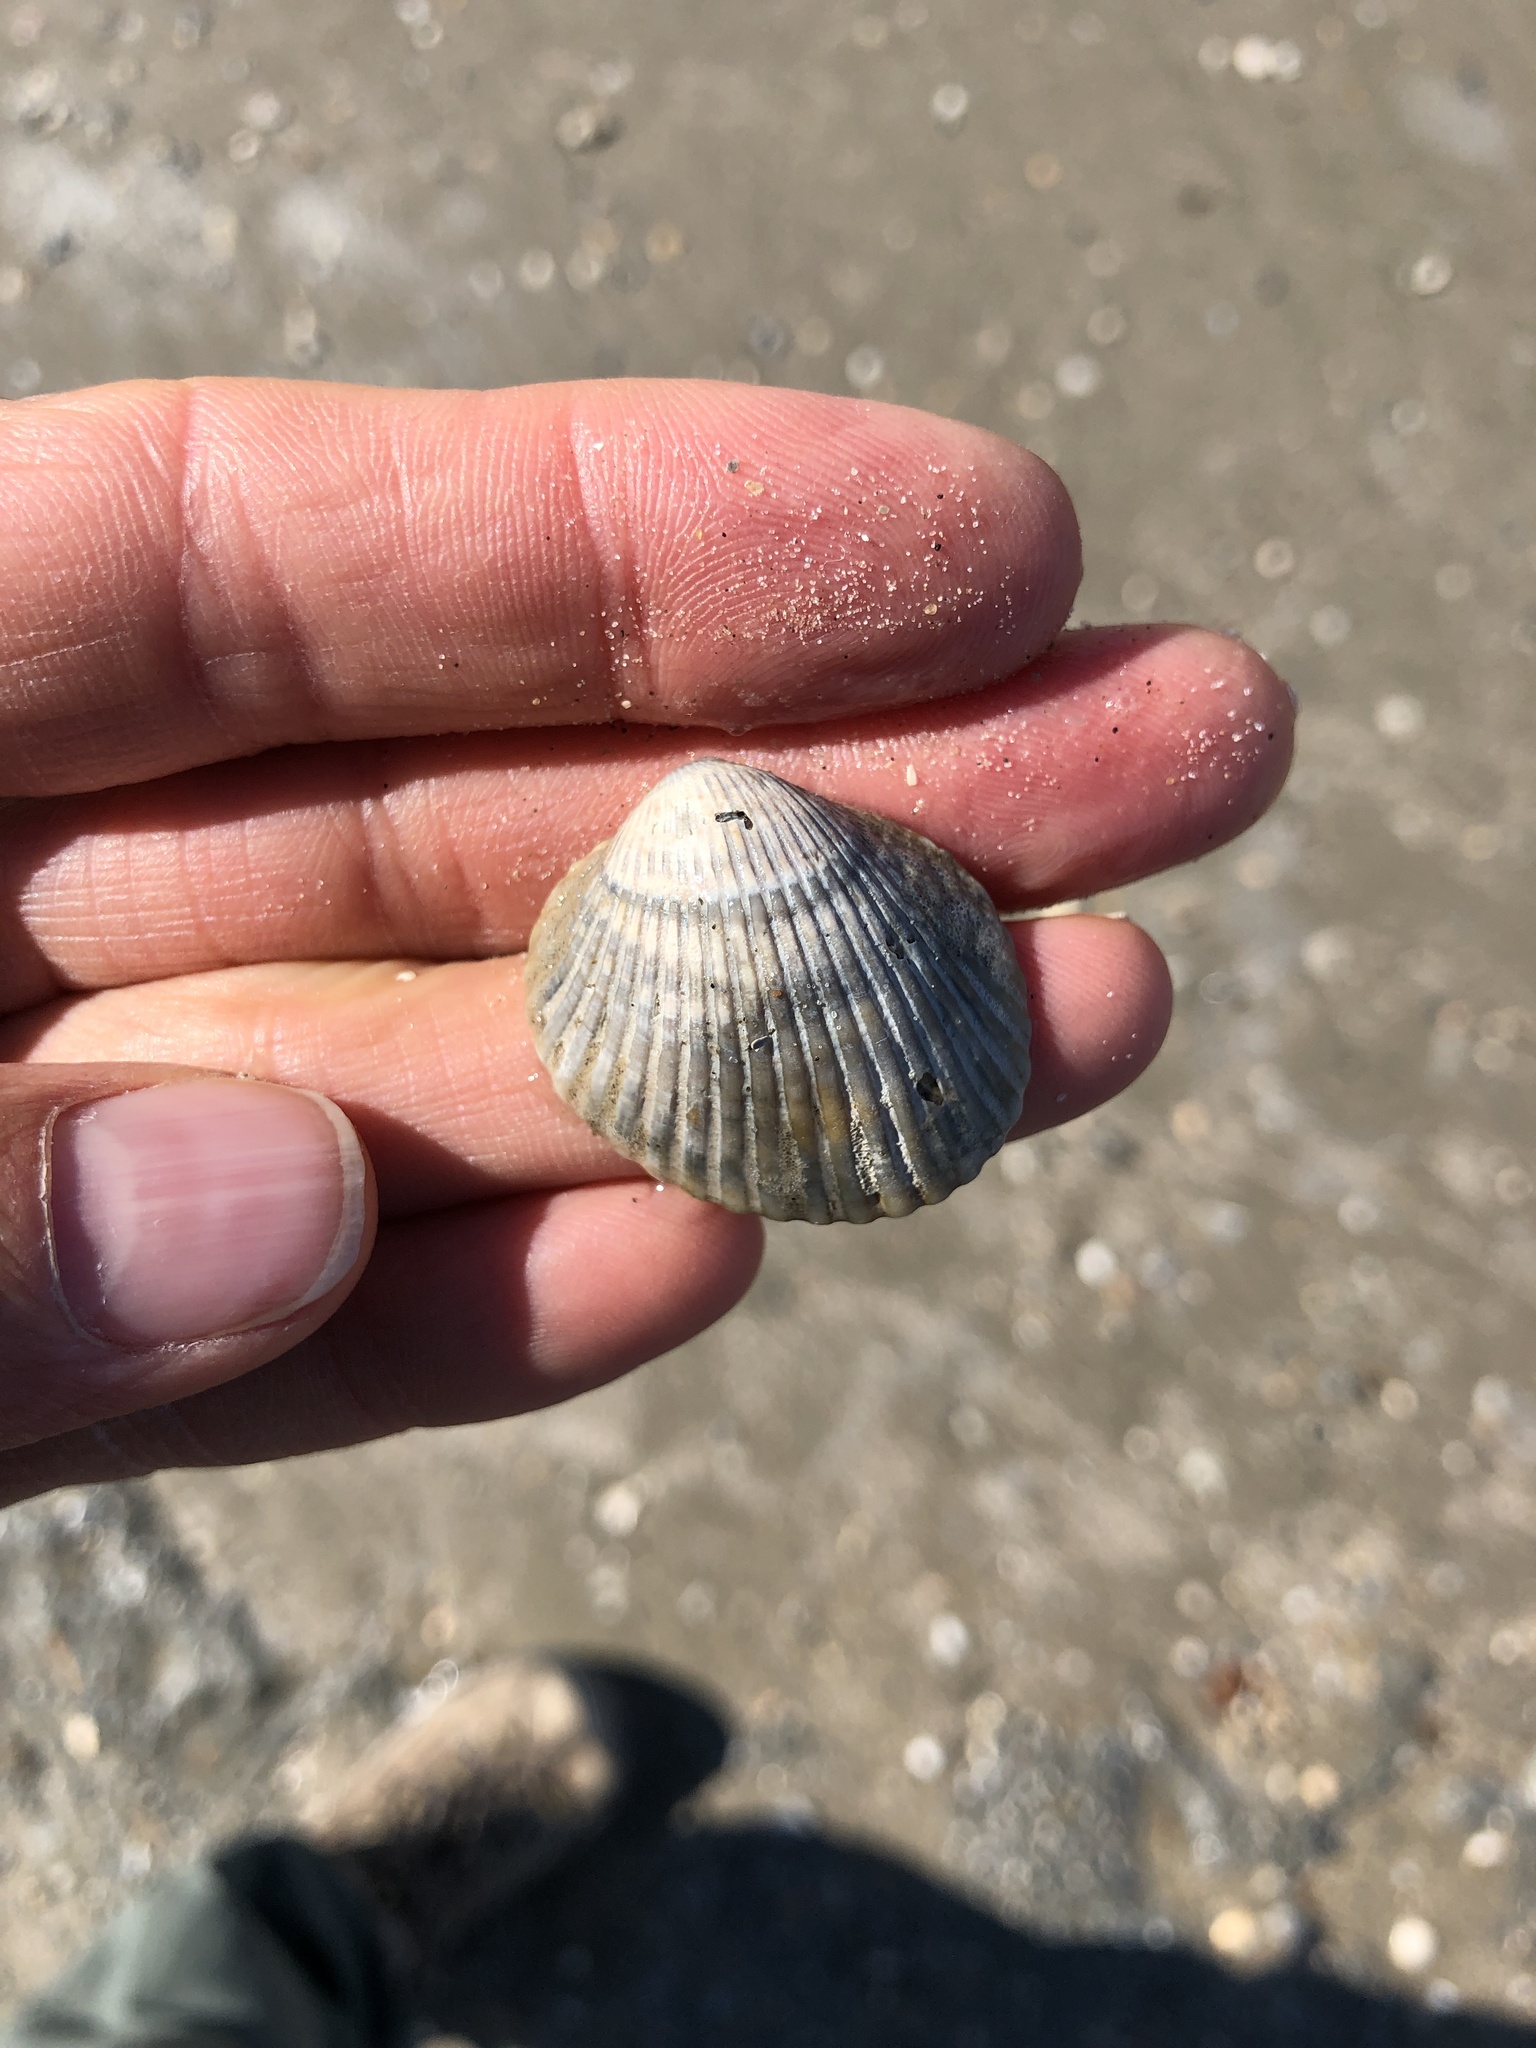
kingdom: Animalia
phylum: Mollusca
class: Bivalvia
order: Arcida
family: Arcidae
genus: Lunarca
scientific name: Lunarca ovalis
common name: Blood ark
